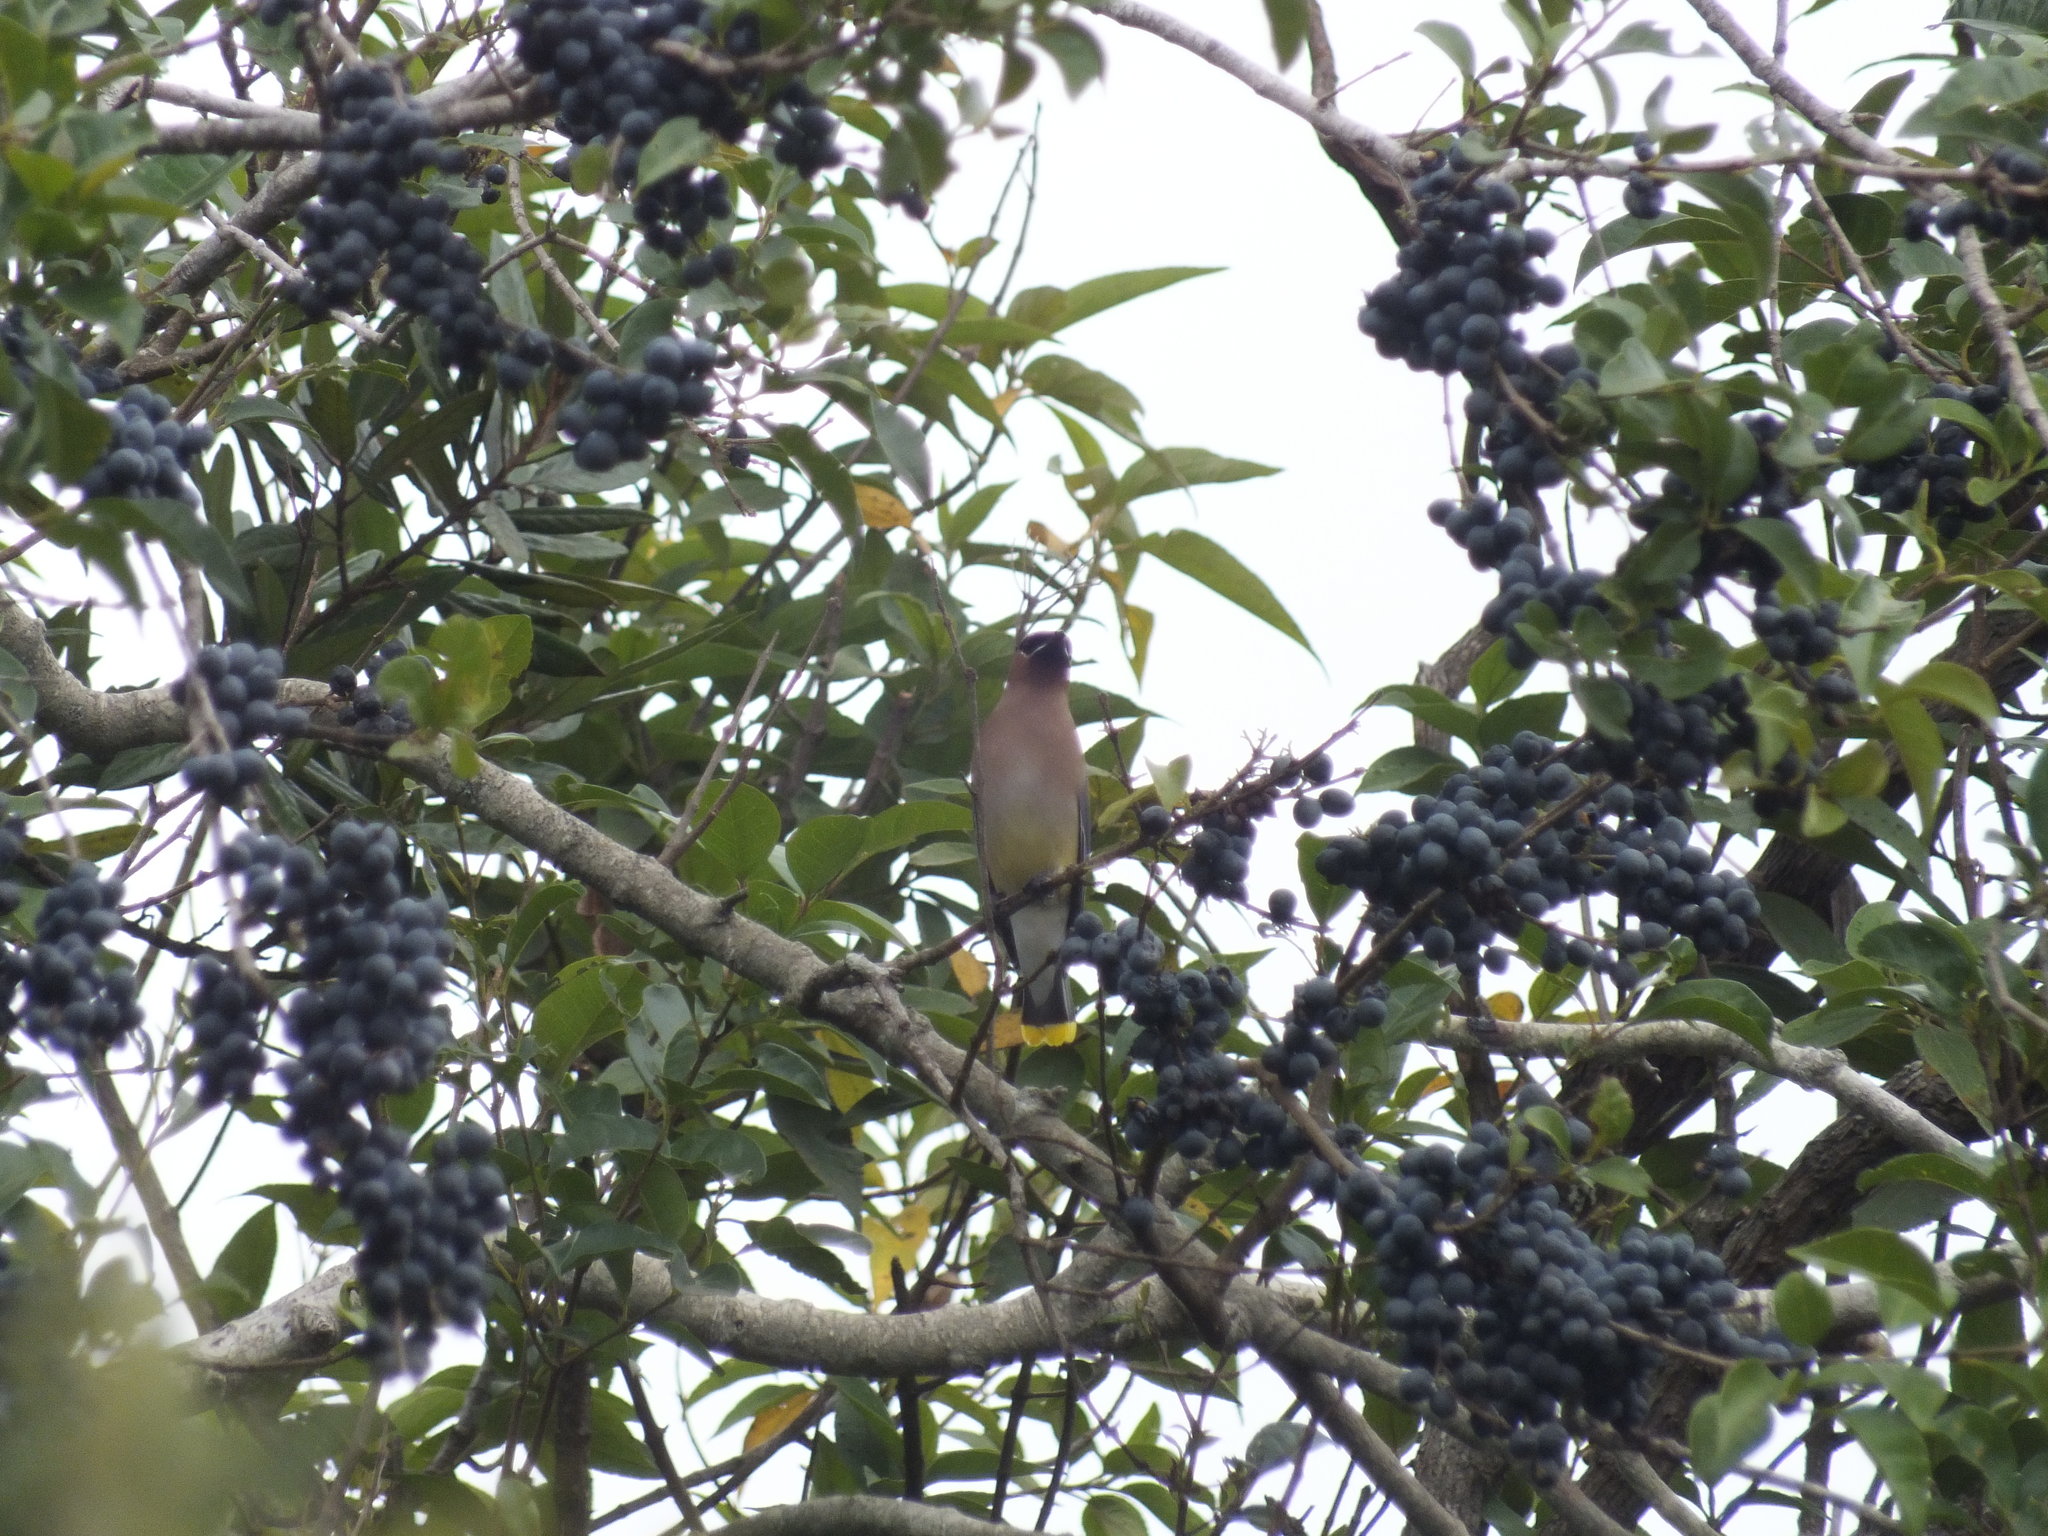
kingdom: Animalia
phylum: Chordata
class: Aves
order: Passeriformes
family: Bombycillidae
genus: Bombycilla
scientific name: Bombycilla cedrorum
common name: Cedar waxwing
